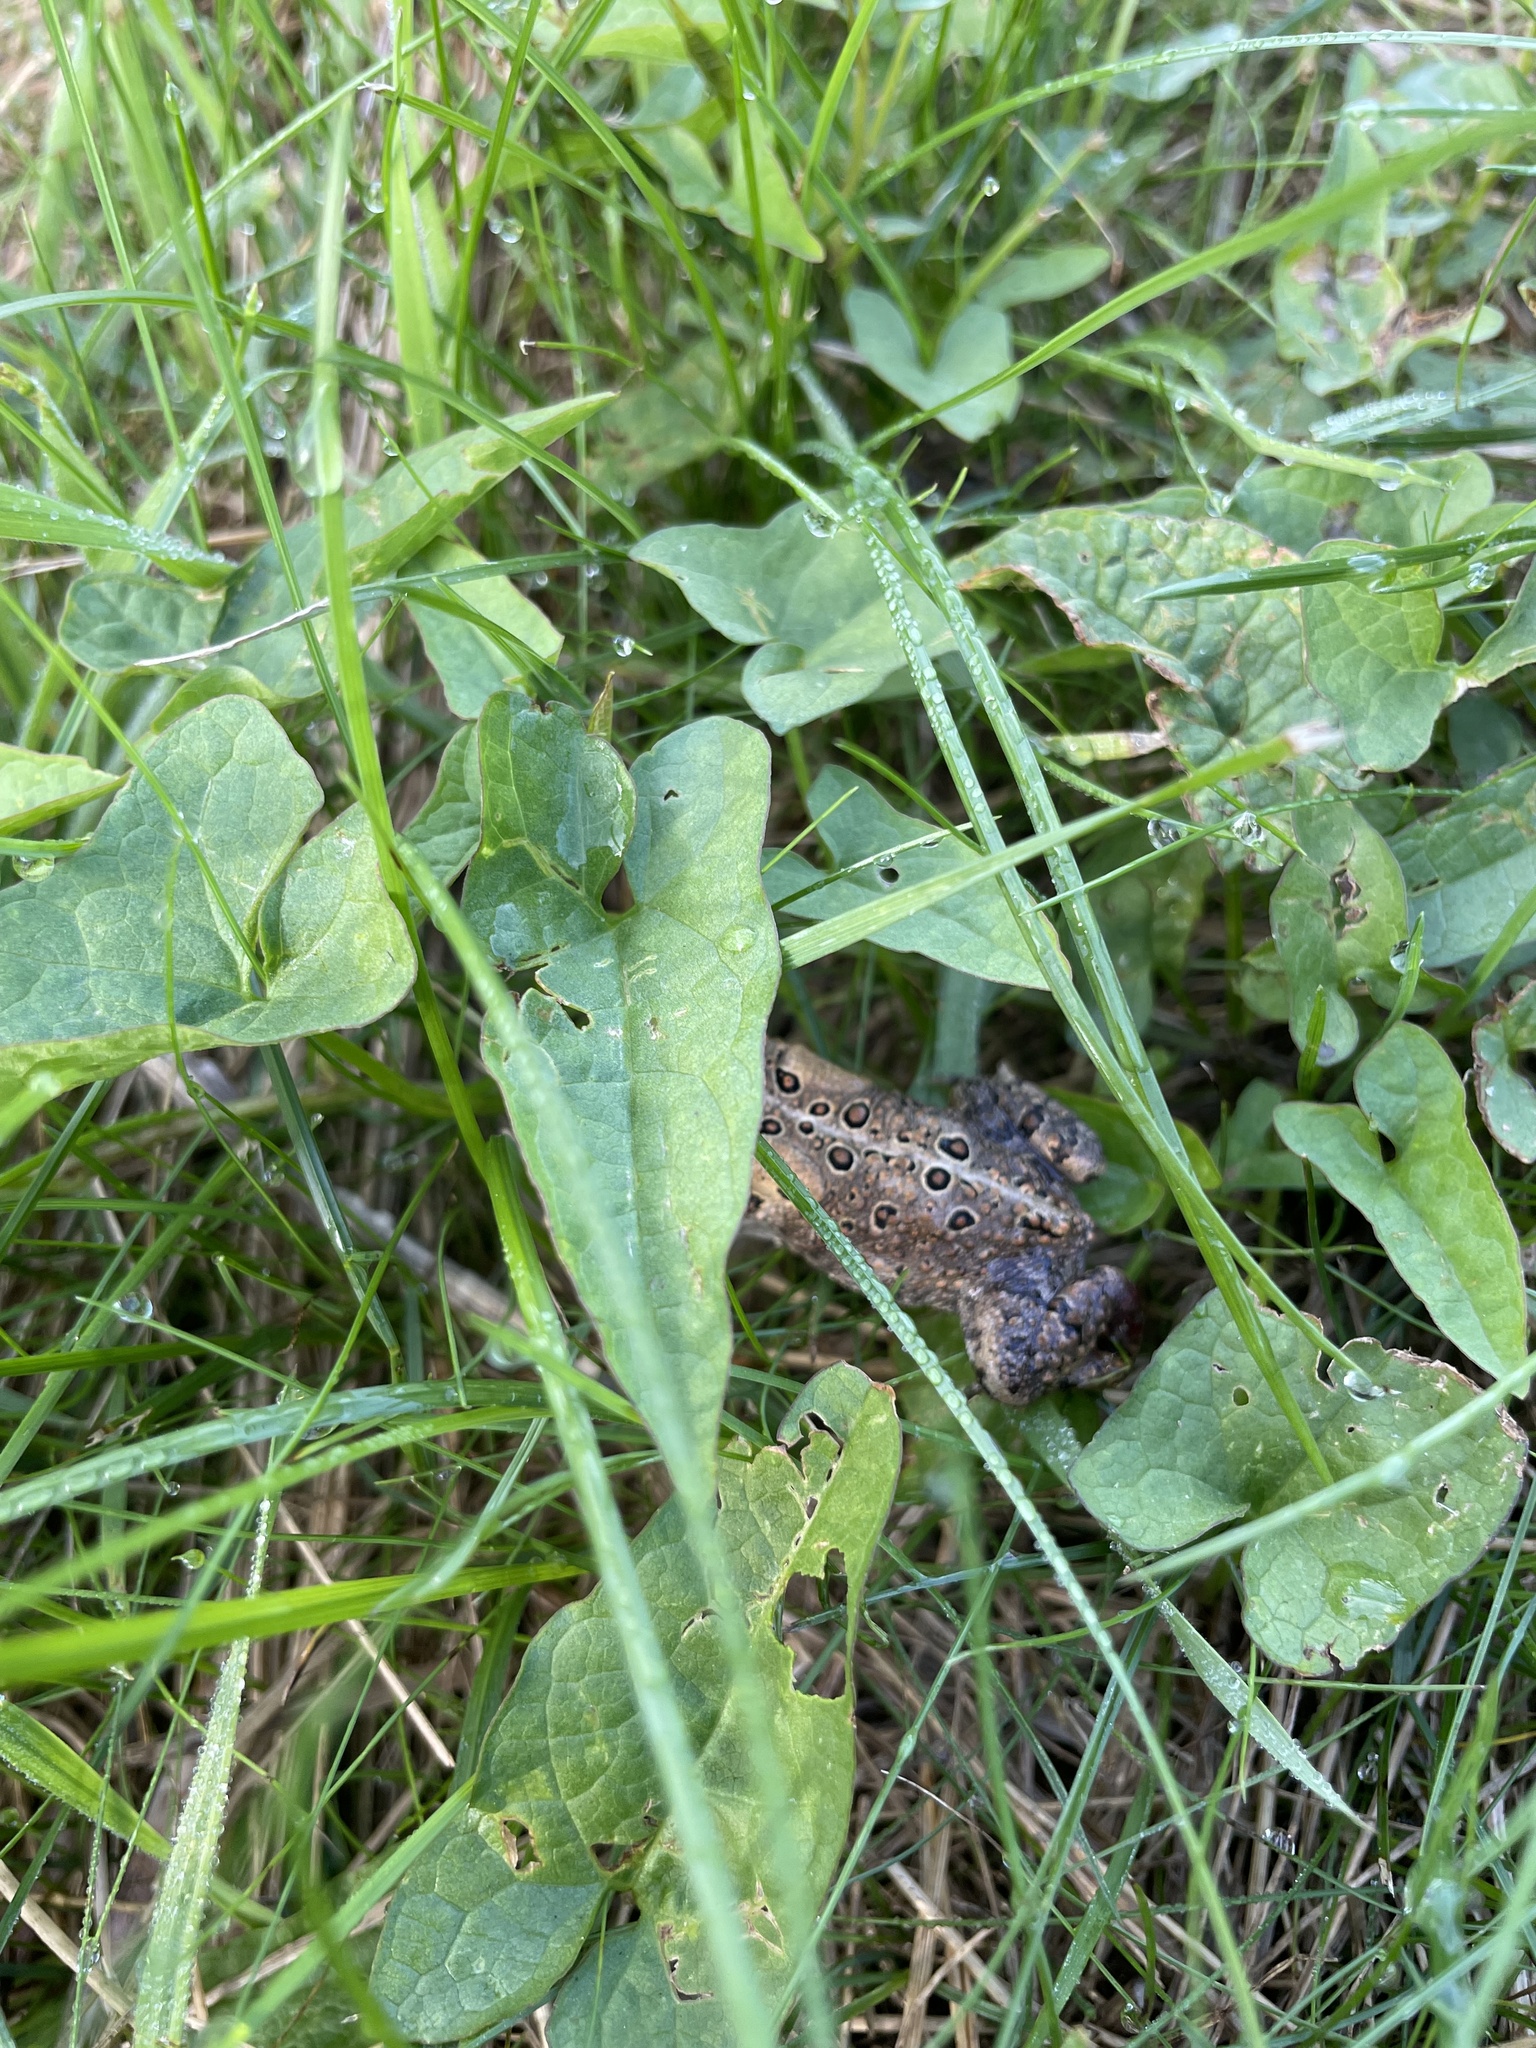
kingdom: Animalia
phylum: Chordata
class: Amphibia
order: Anura
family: Bufonidae
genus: Anaxyrus
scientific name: Anaxyrus americanus
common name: American toad
